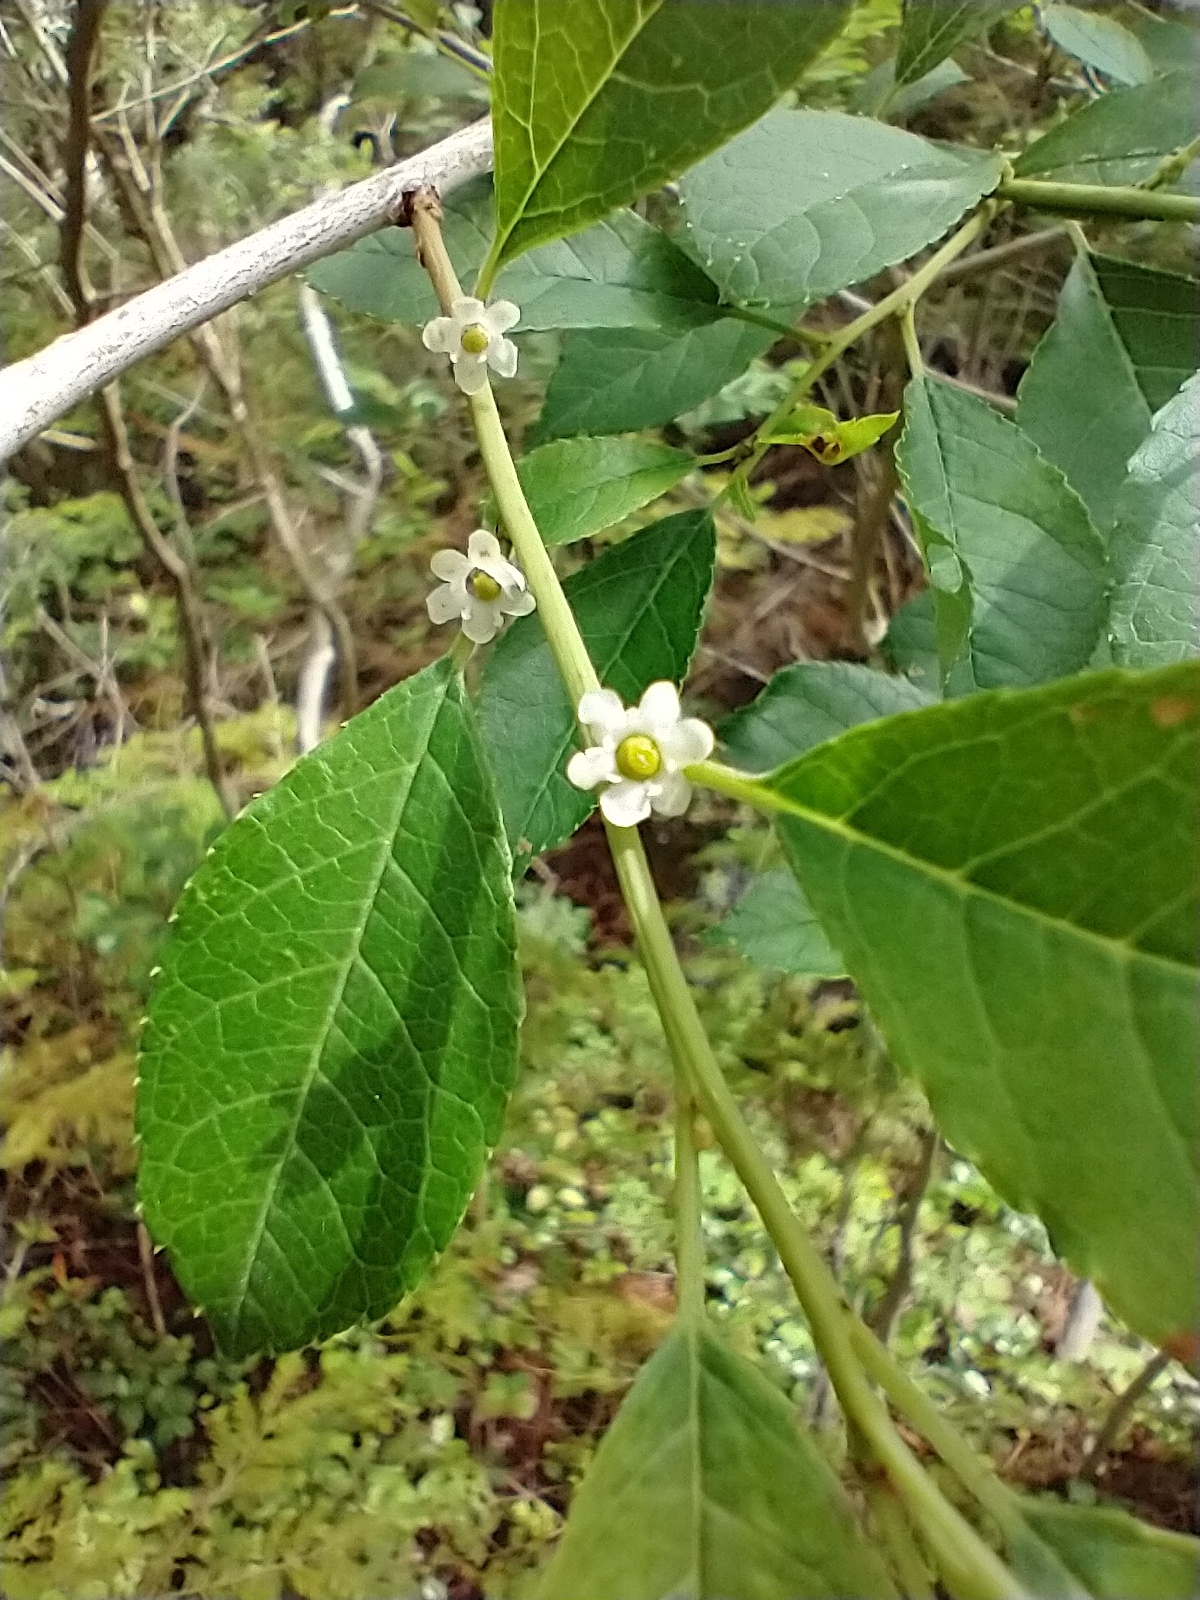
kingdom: Plantae
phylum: Tracheophyta
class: Magnoliopsida
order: Aquifoliales
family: Aquifoliaceae
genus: Ilex
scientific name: Ilex verticillata
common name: Virginia winterberry
